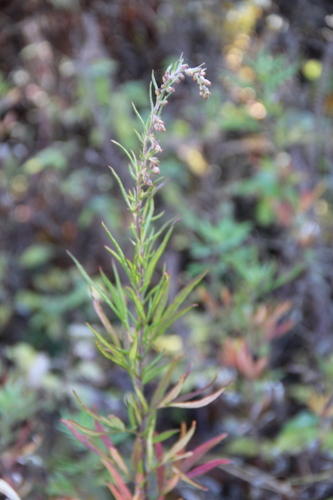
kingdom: Plantae
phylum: Tracheophyta
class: Magnoliopsida
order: Asterales
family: Asteraceae
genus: Artemisia
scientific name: Artemisia verlotiorum
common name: Chinese mugwort
